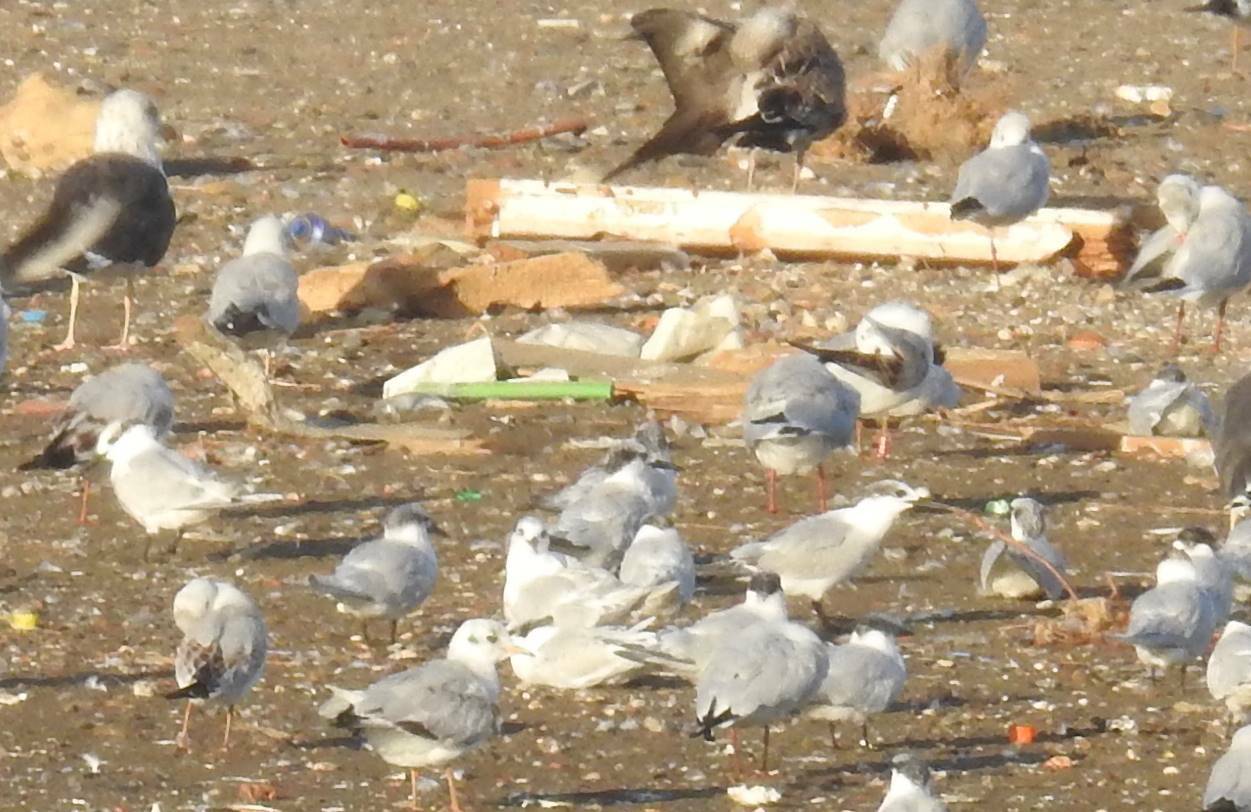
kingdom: Animalia
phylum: Chordata
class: Aves
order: Charadriiformes
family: Laridae
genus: Thalasseus
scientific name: Thalasseus sandvicensis
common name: Sandwich tern
